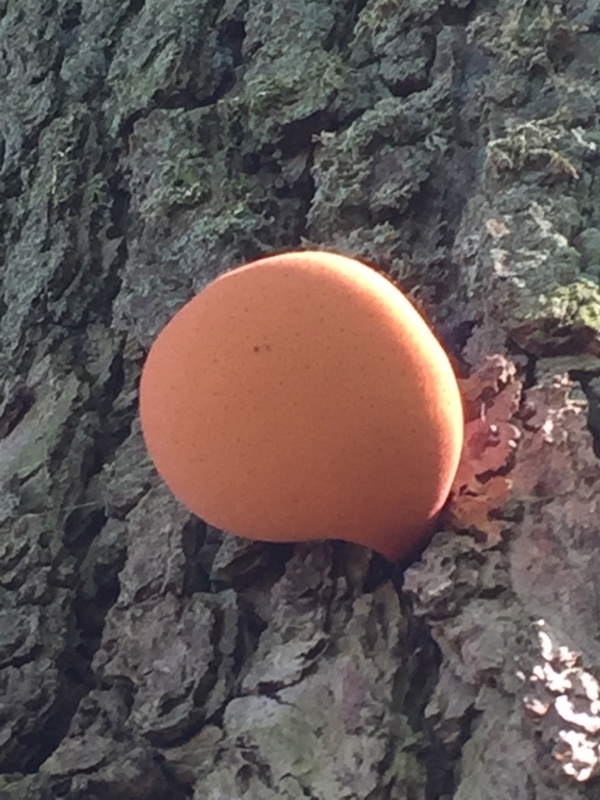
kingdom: Fungi
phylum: Basidiomycota
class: Agaricomycetes
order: Agaricales
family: Fistulinaceae
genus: Fistulina
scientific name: Fistulina hepatica
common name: Beef-steak fungus
